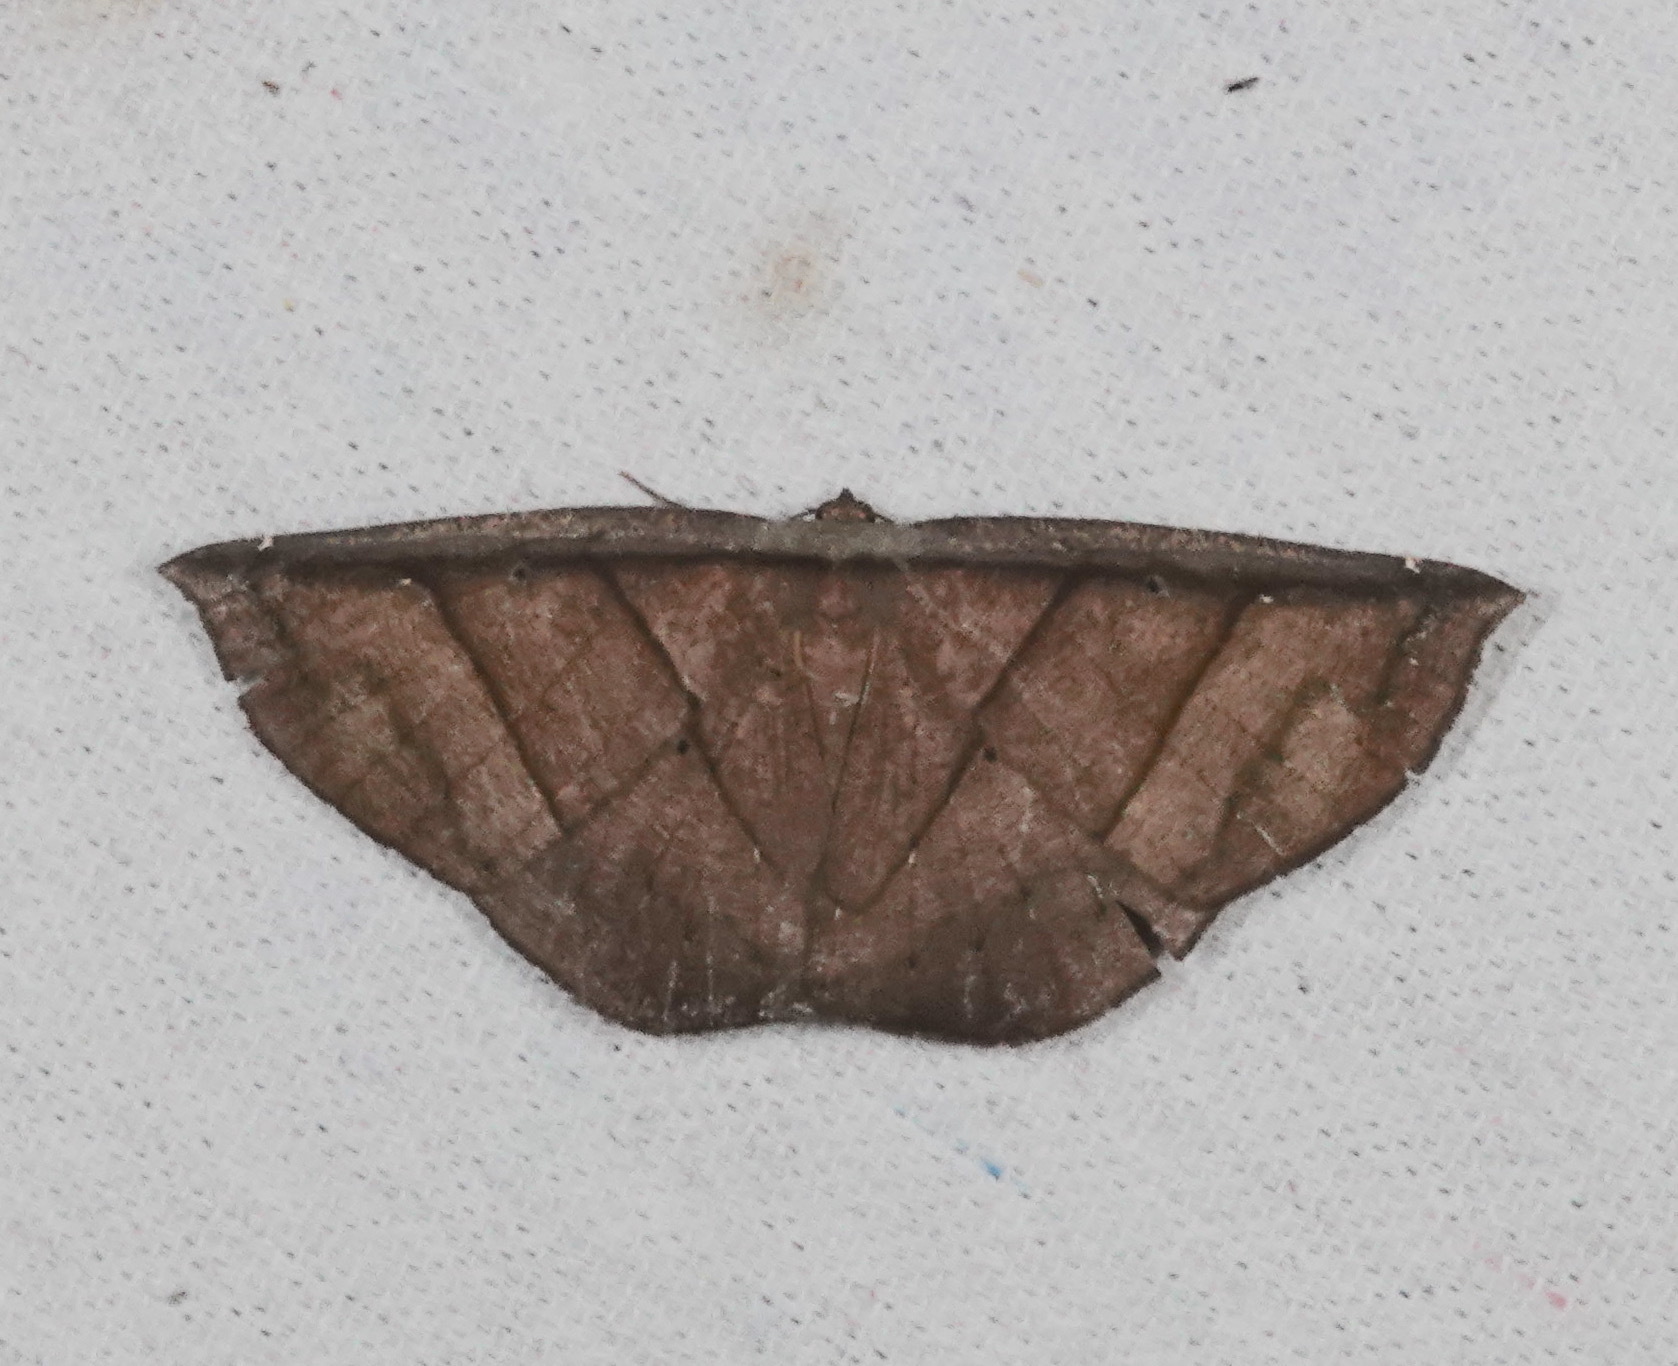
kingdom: Animalia
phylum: Arthropoda
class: Insecta
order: Lepidoptera
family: Geometridae
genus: Cimicodes
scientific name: Cimicodes purpurea
